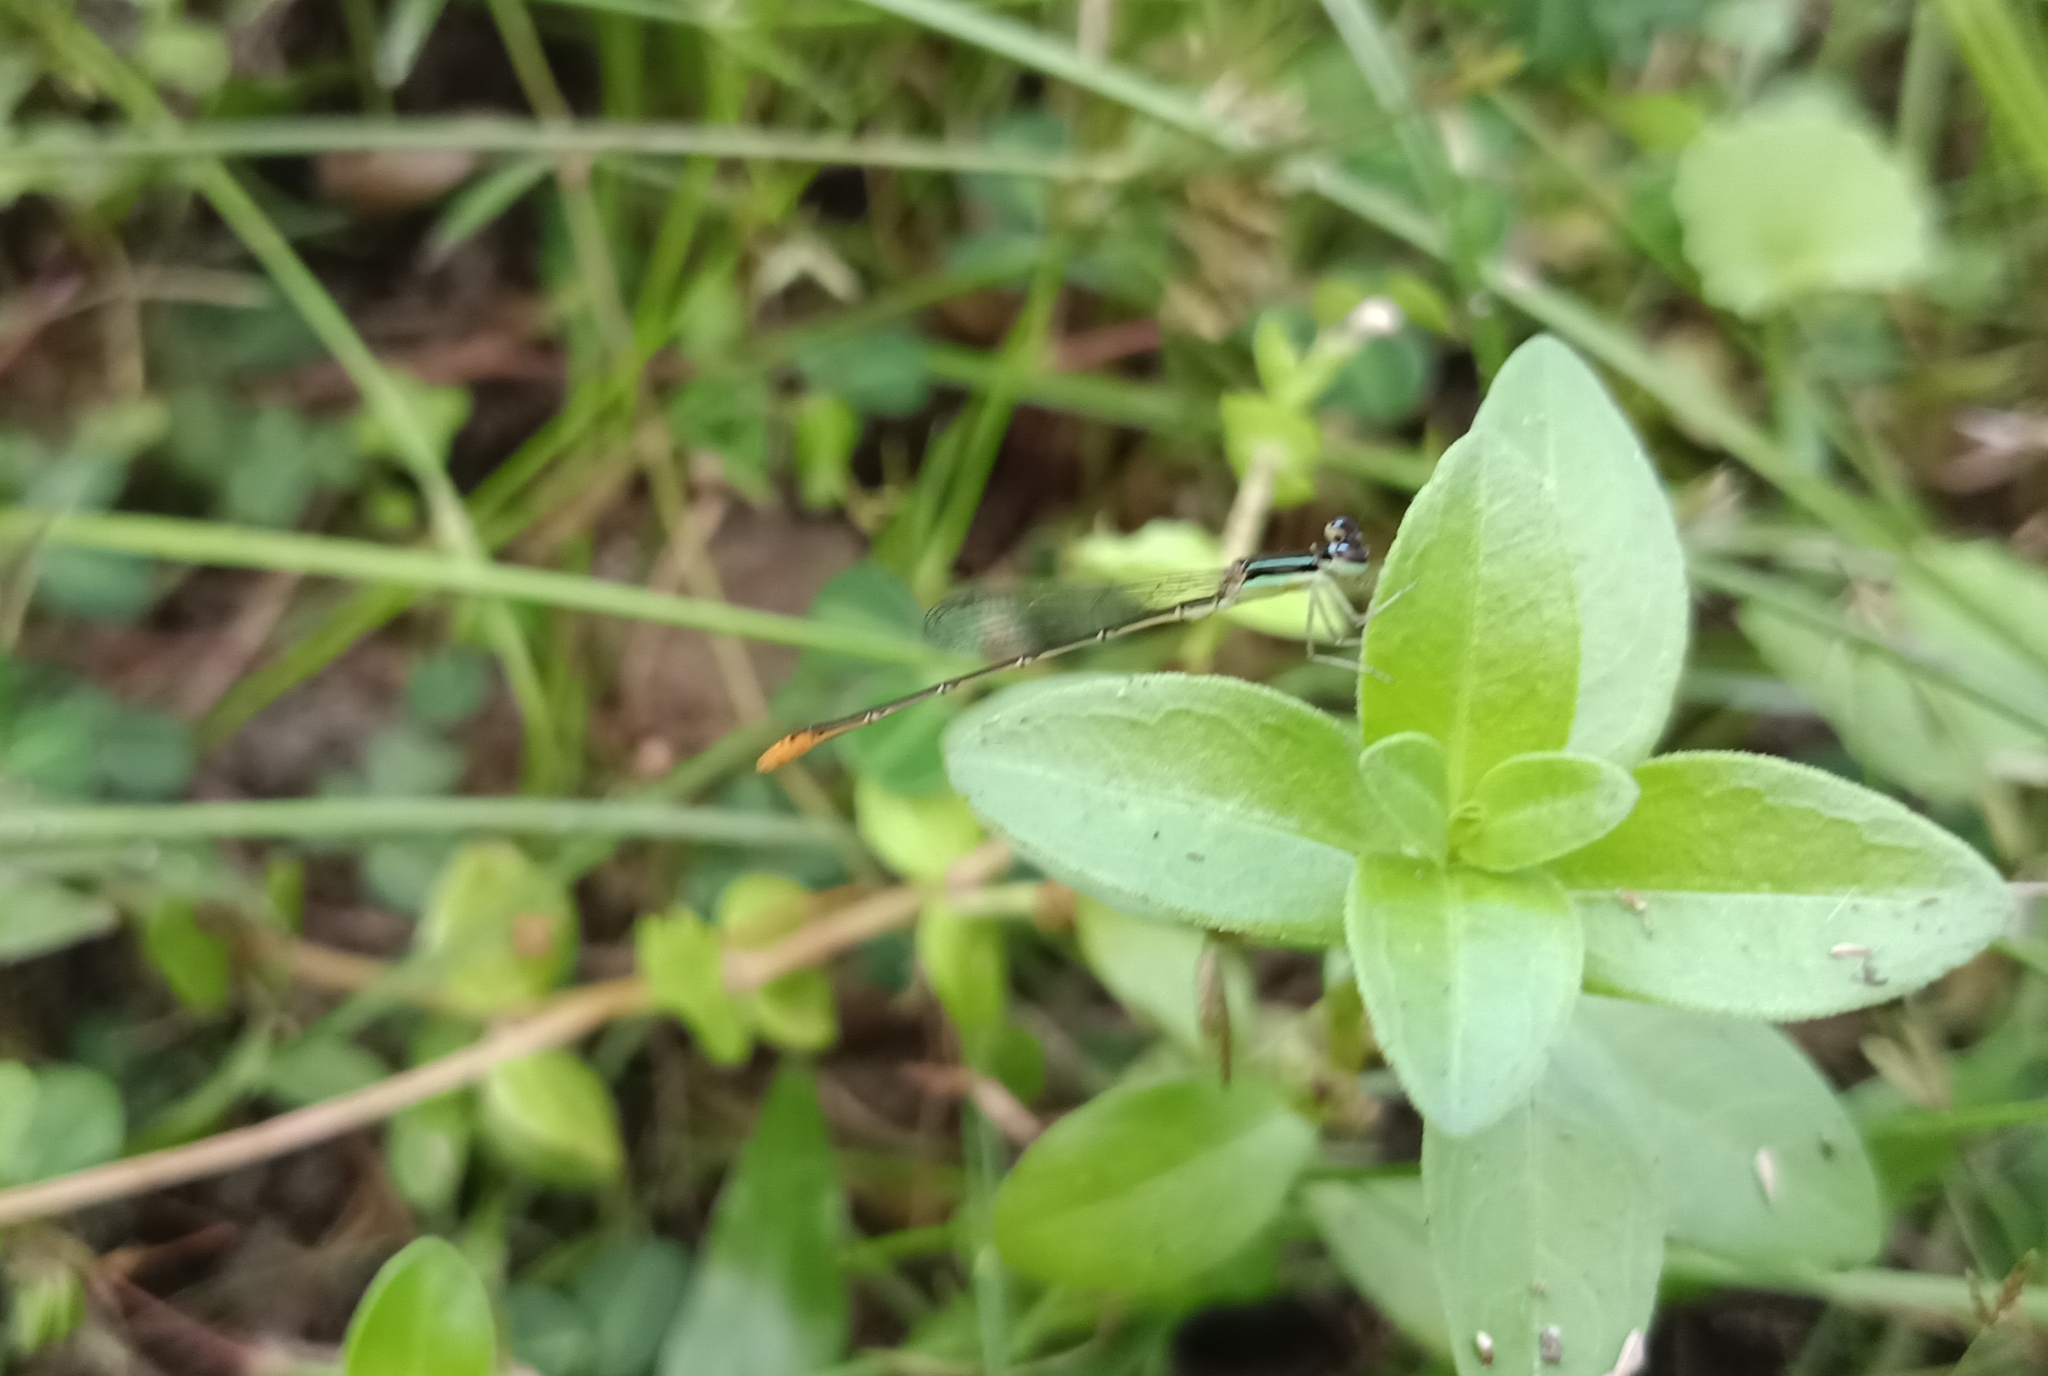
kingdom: Animalia
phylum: Arthropoda
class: Insecta
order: Odonata
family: Coenagrionidae
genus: Agriocnemis
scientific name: Agriocnemis pygmaea
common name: Pygmy wisp
